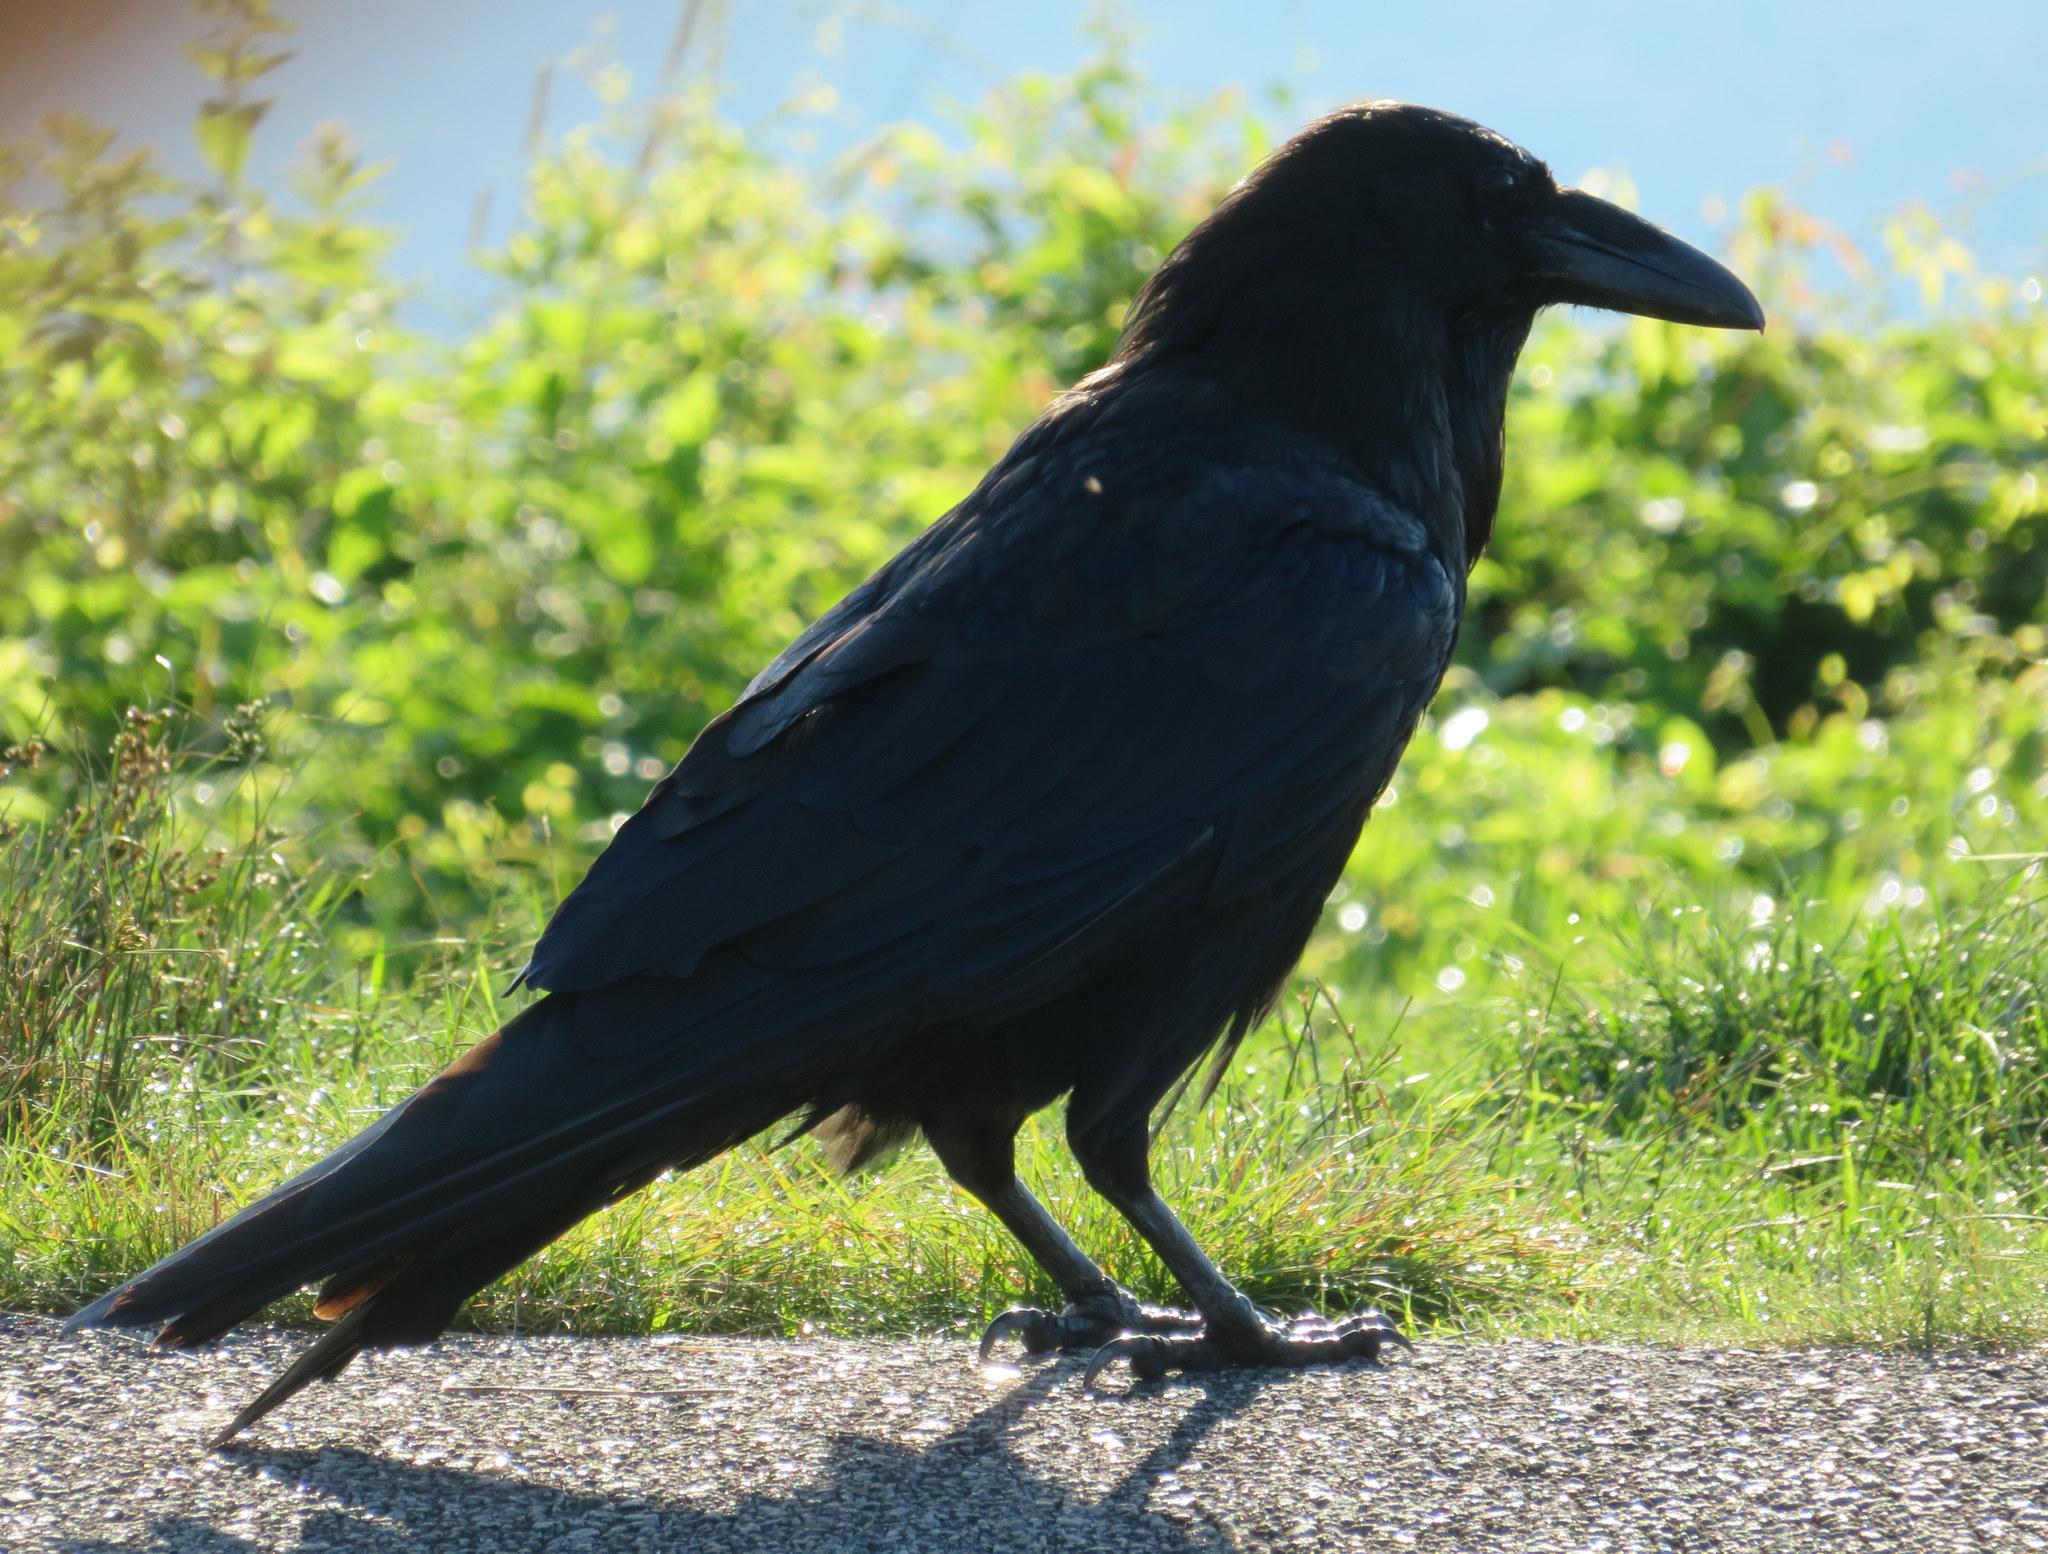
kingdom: Animalia
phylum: Chordata
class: Aves
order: Passeriformes
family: Corvidae
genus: Corvus
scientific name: Corvus corax
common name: Common raven
